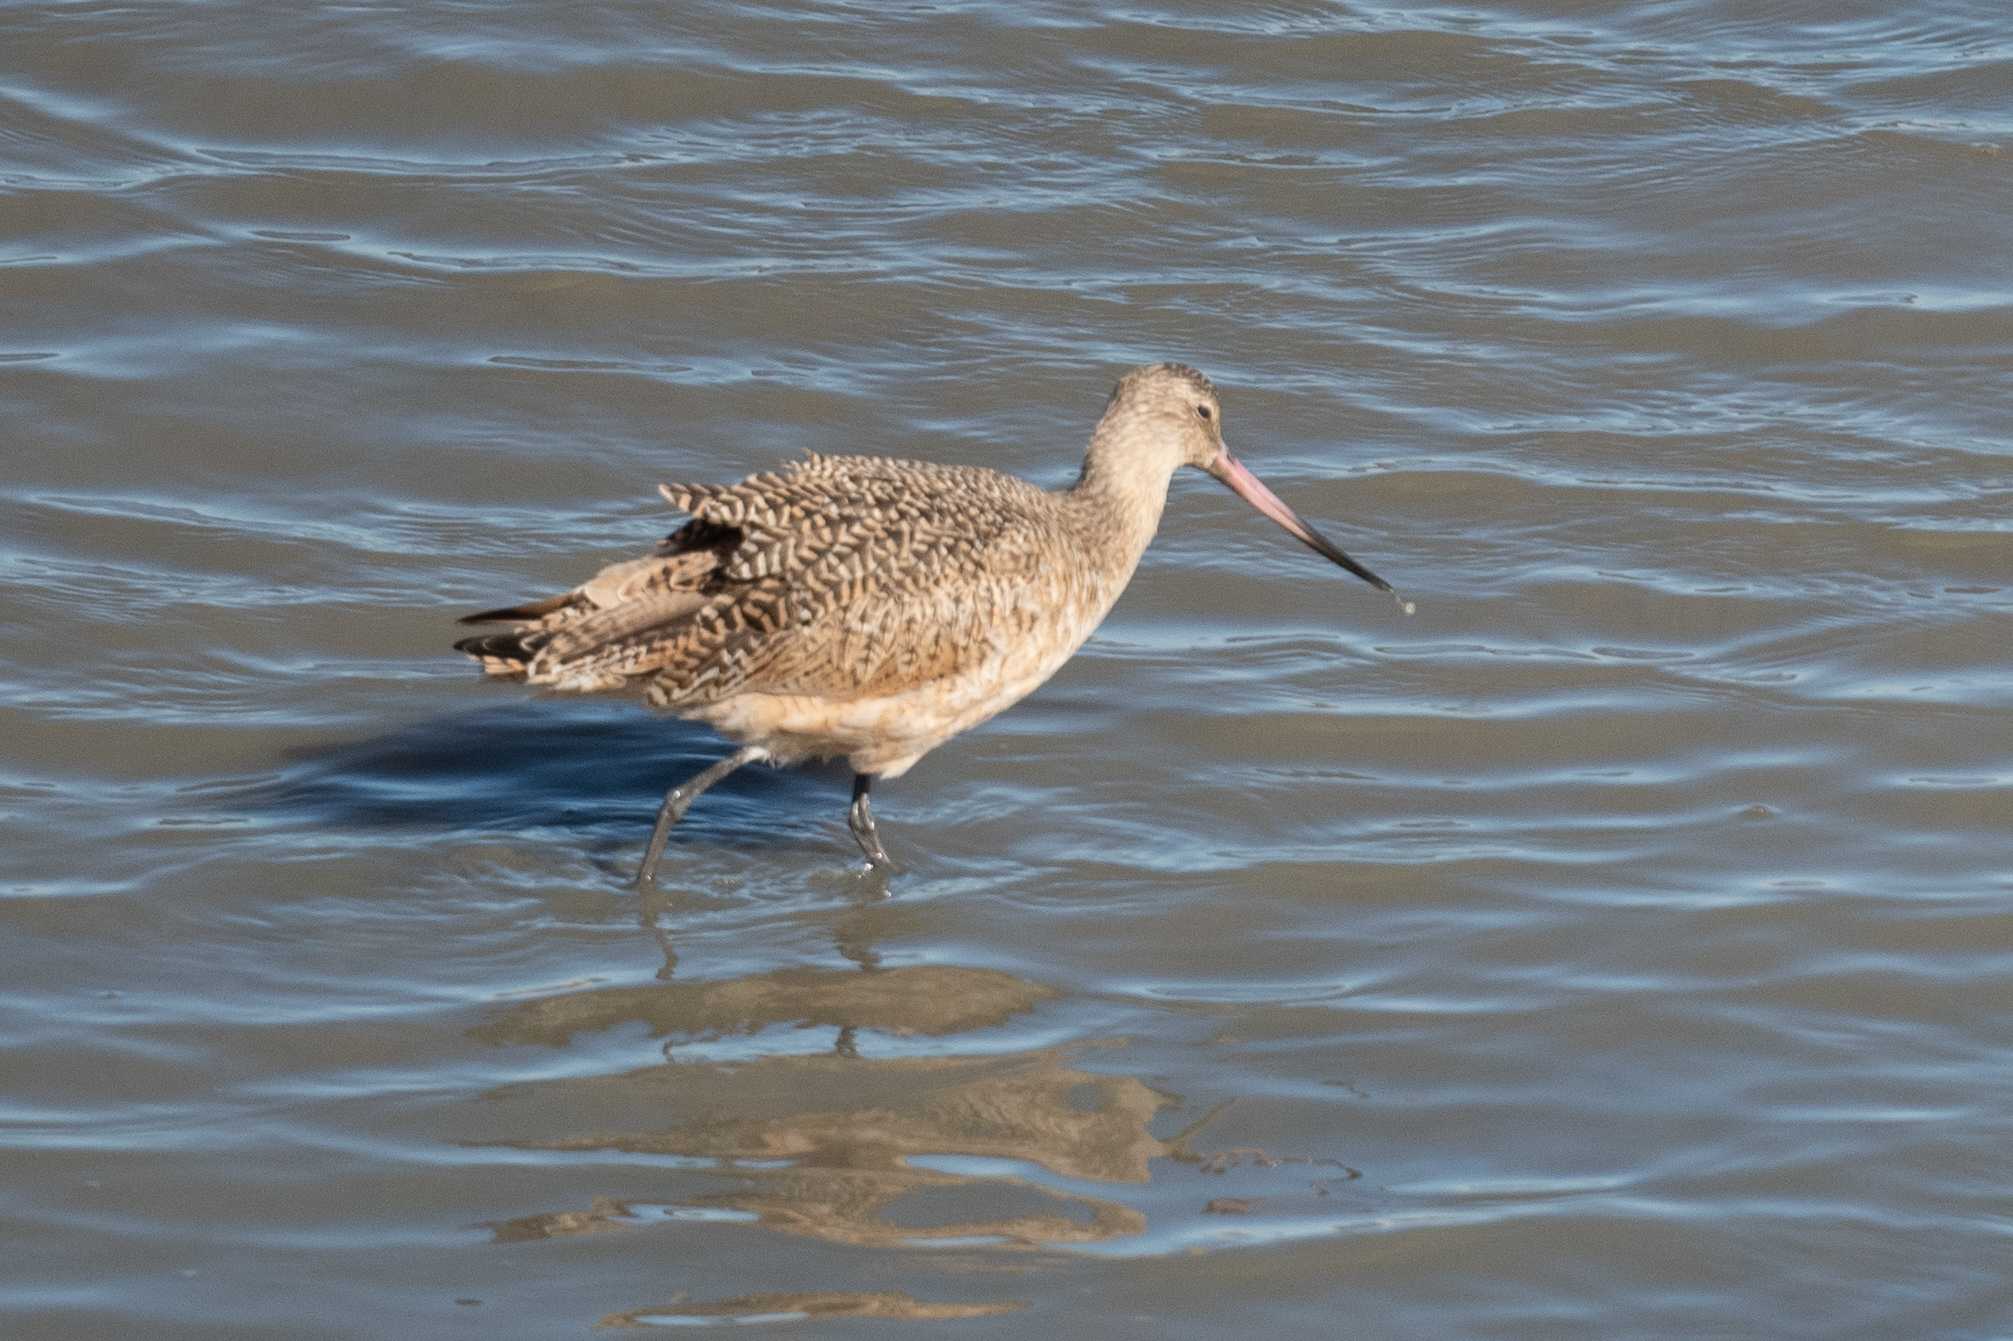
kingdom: Animalia
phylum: Chordata
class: Aves
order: Charadriiformes
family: Scolopacidae
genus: Limosa
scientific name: Limosa fedoa
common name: Marbled godwit
